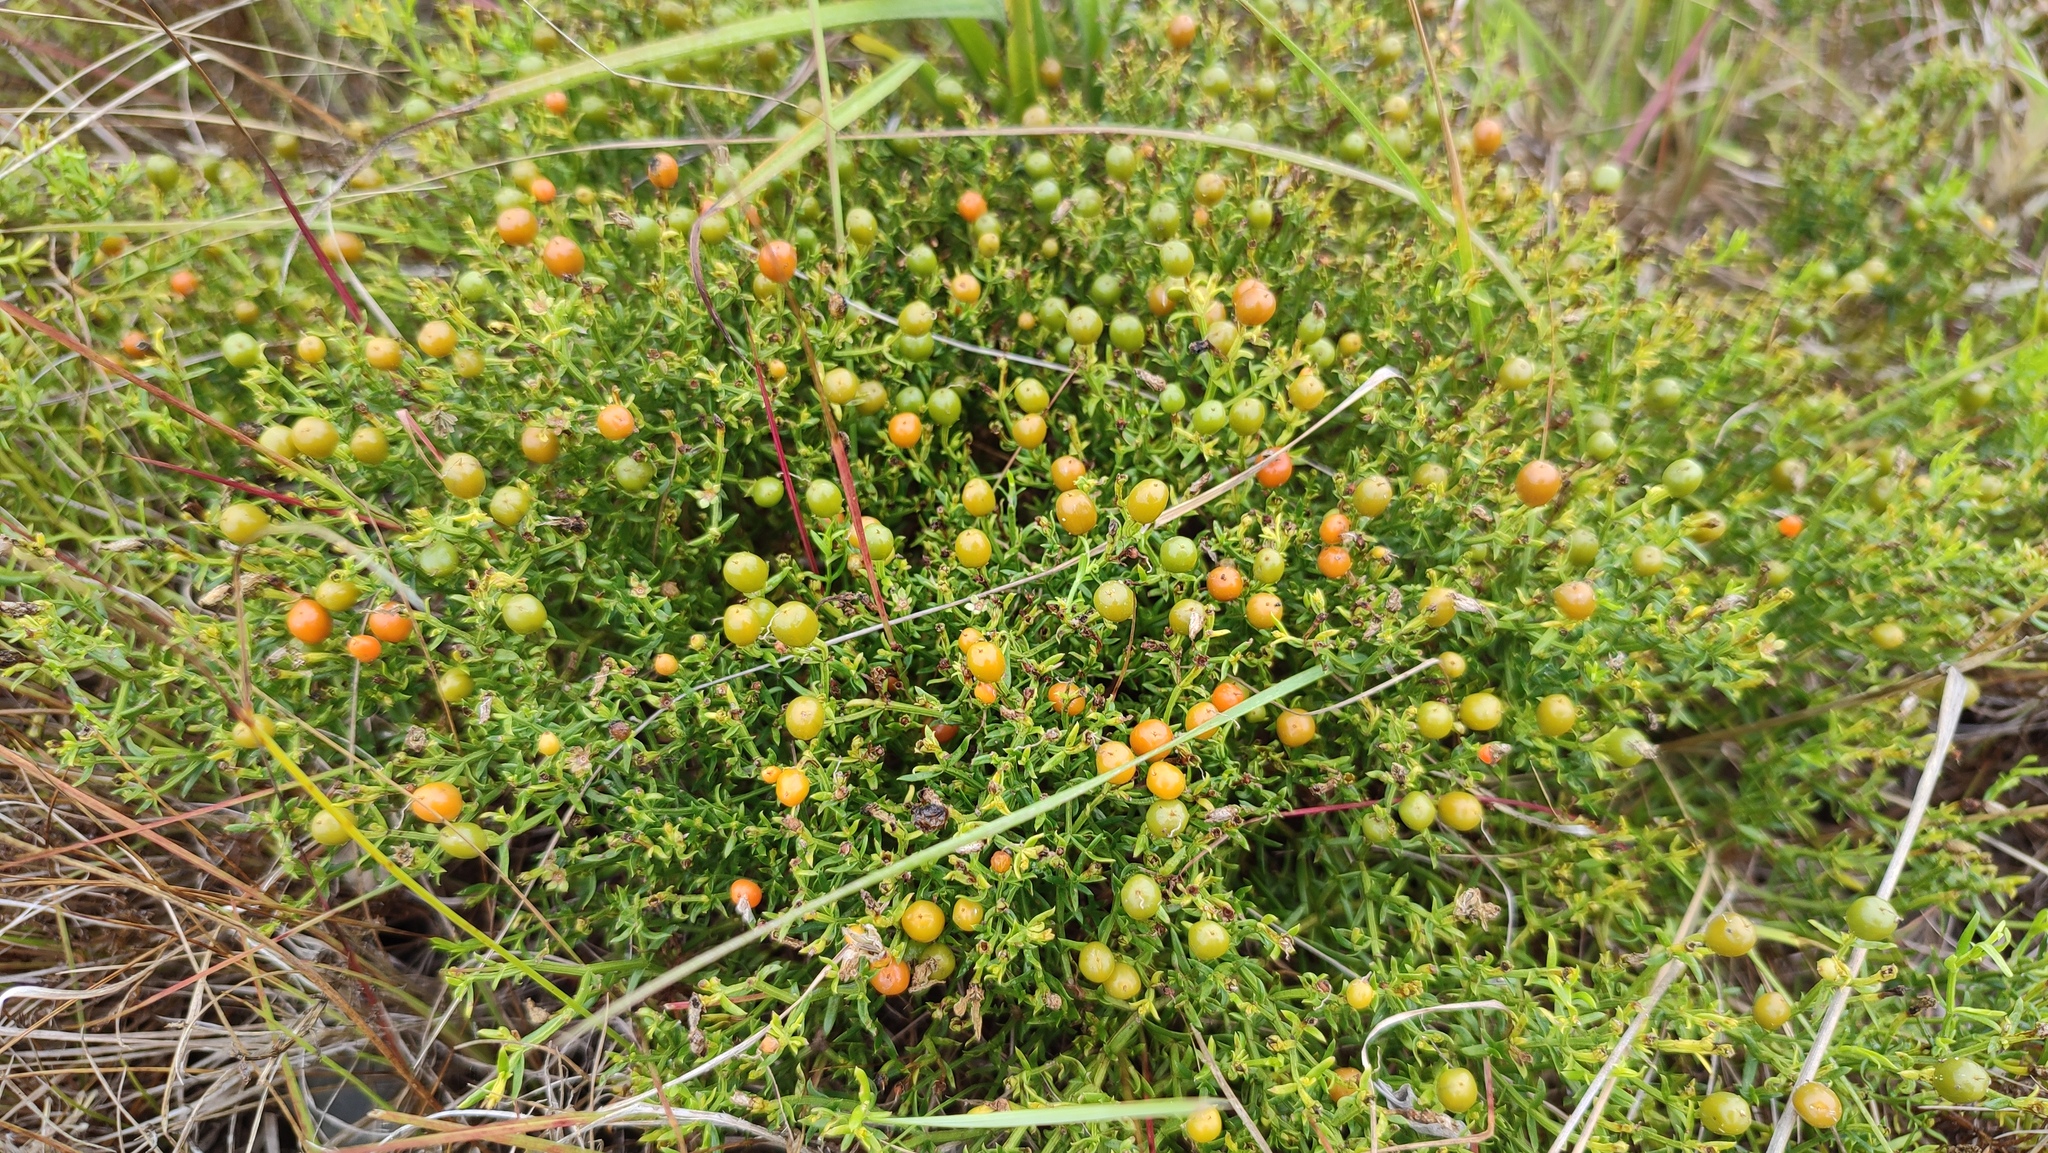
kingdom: Plantae
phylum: Tracheophyta
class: Magnoliopsida
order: Gentianales
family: Gentianaceae
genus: Chironia
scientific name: Chironia baccifera
